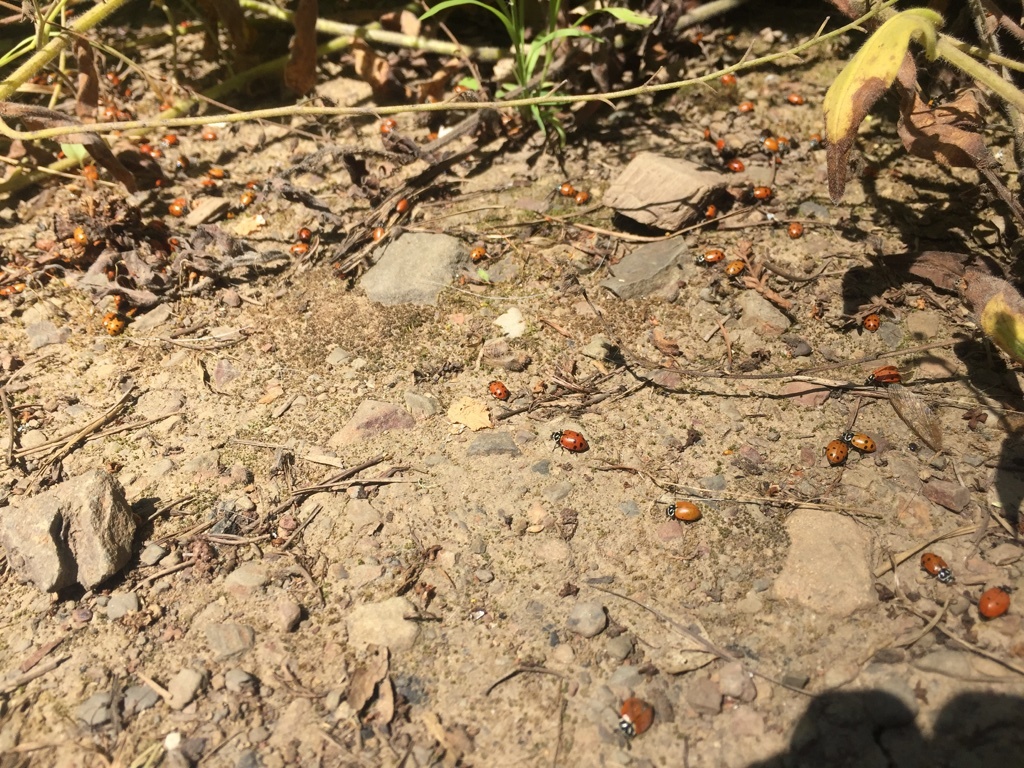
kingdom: Animalia
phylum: Arthropoda
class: Insecta
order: Coleoptera
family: Coccinellidae
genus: Hippodamia
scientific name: Hippodamia convergens
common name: Convergent lady beetle
